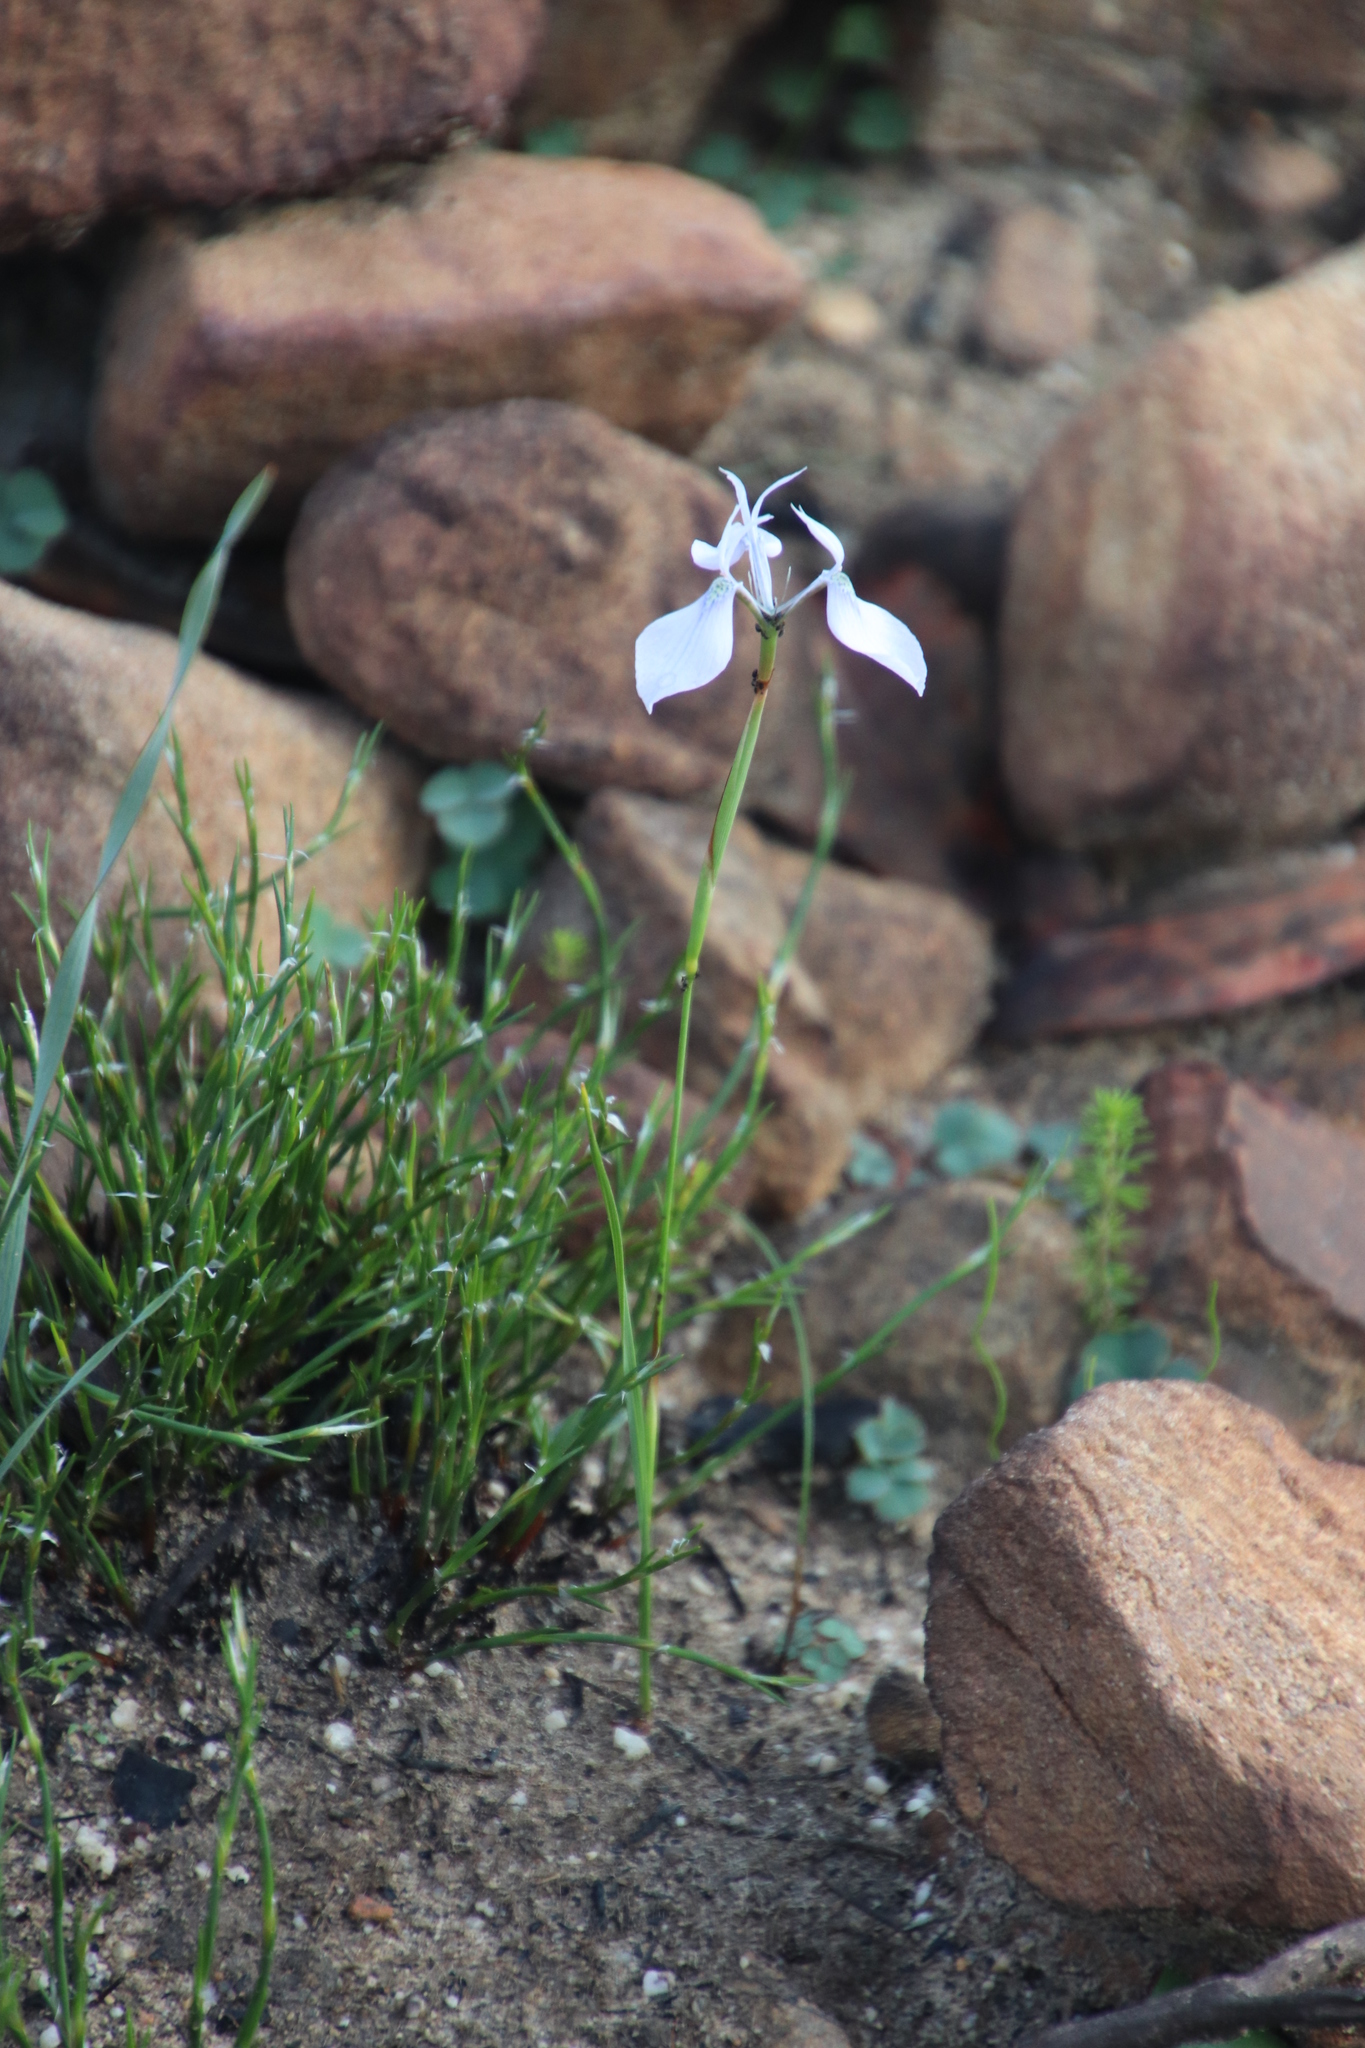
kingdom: Plantae
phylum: Tracheophyta
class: Liliopsida
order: Asparagales
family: Iridaceae
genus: Moraea
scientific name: Moraea tripetala
